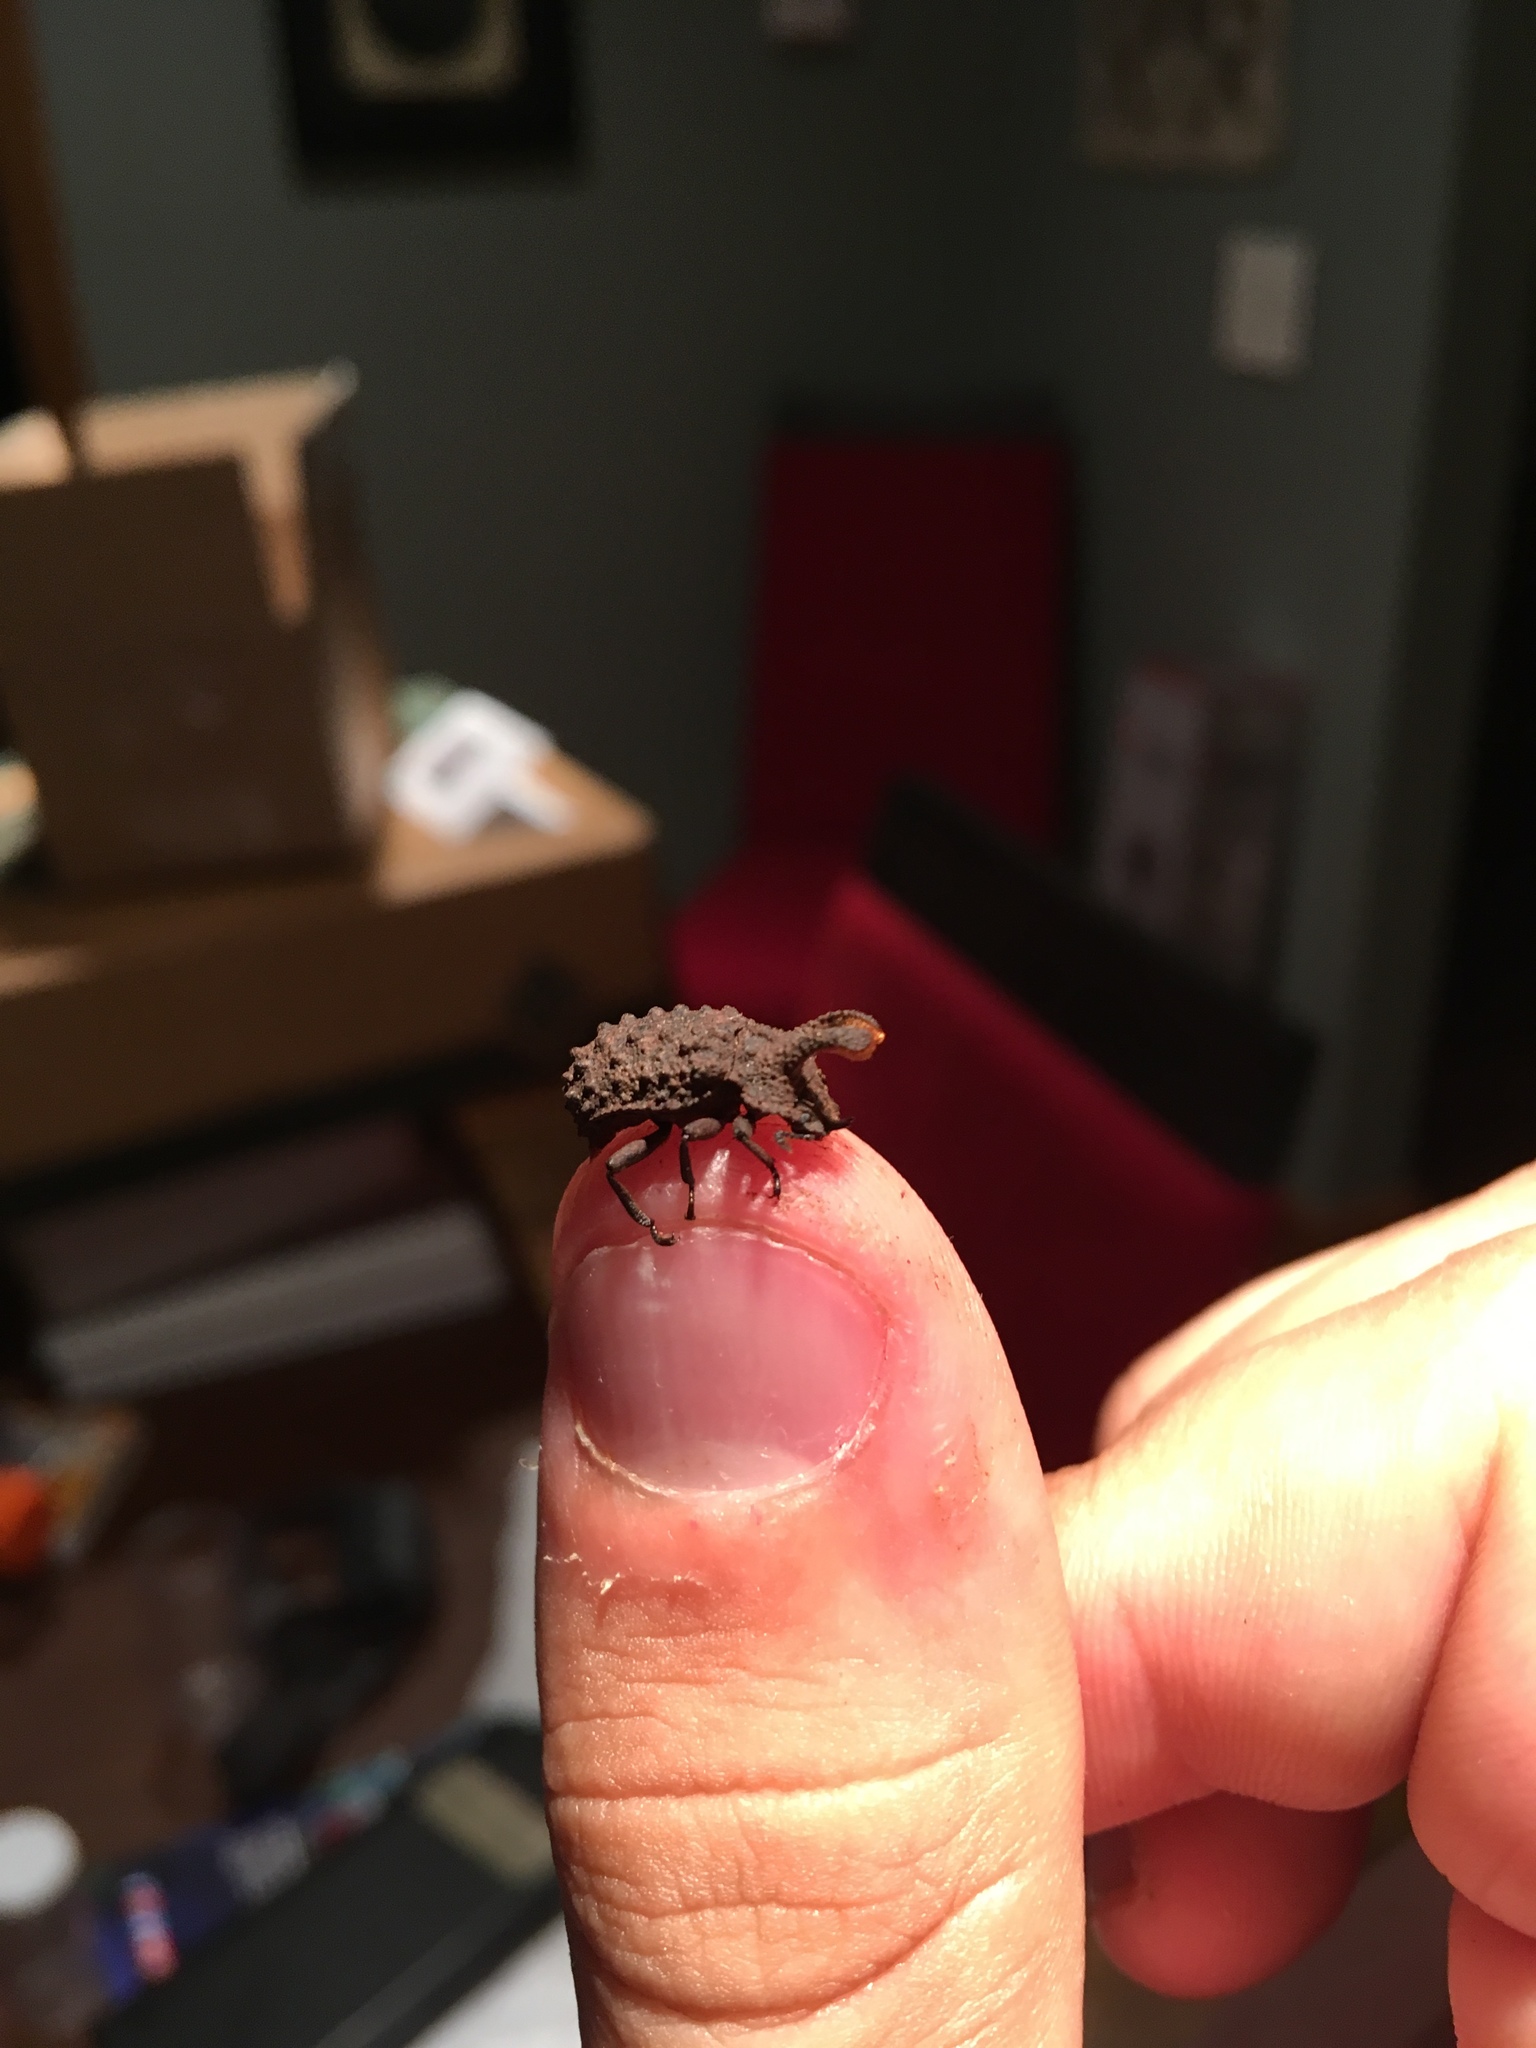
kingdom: Animalia
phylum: Arthropoda
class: Insecta
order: Coleoptera
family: Tenebrionidae
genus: Gnatocerus
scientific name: Gnatocerus cornutus
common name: Broad-horned flour beetle
